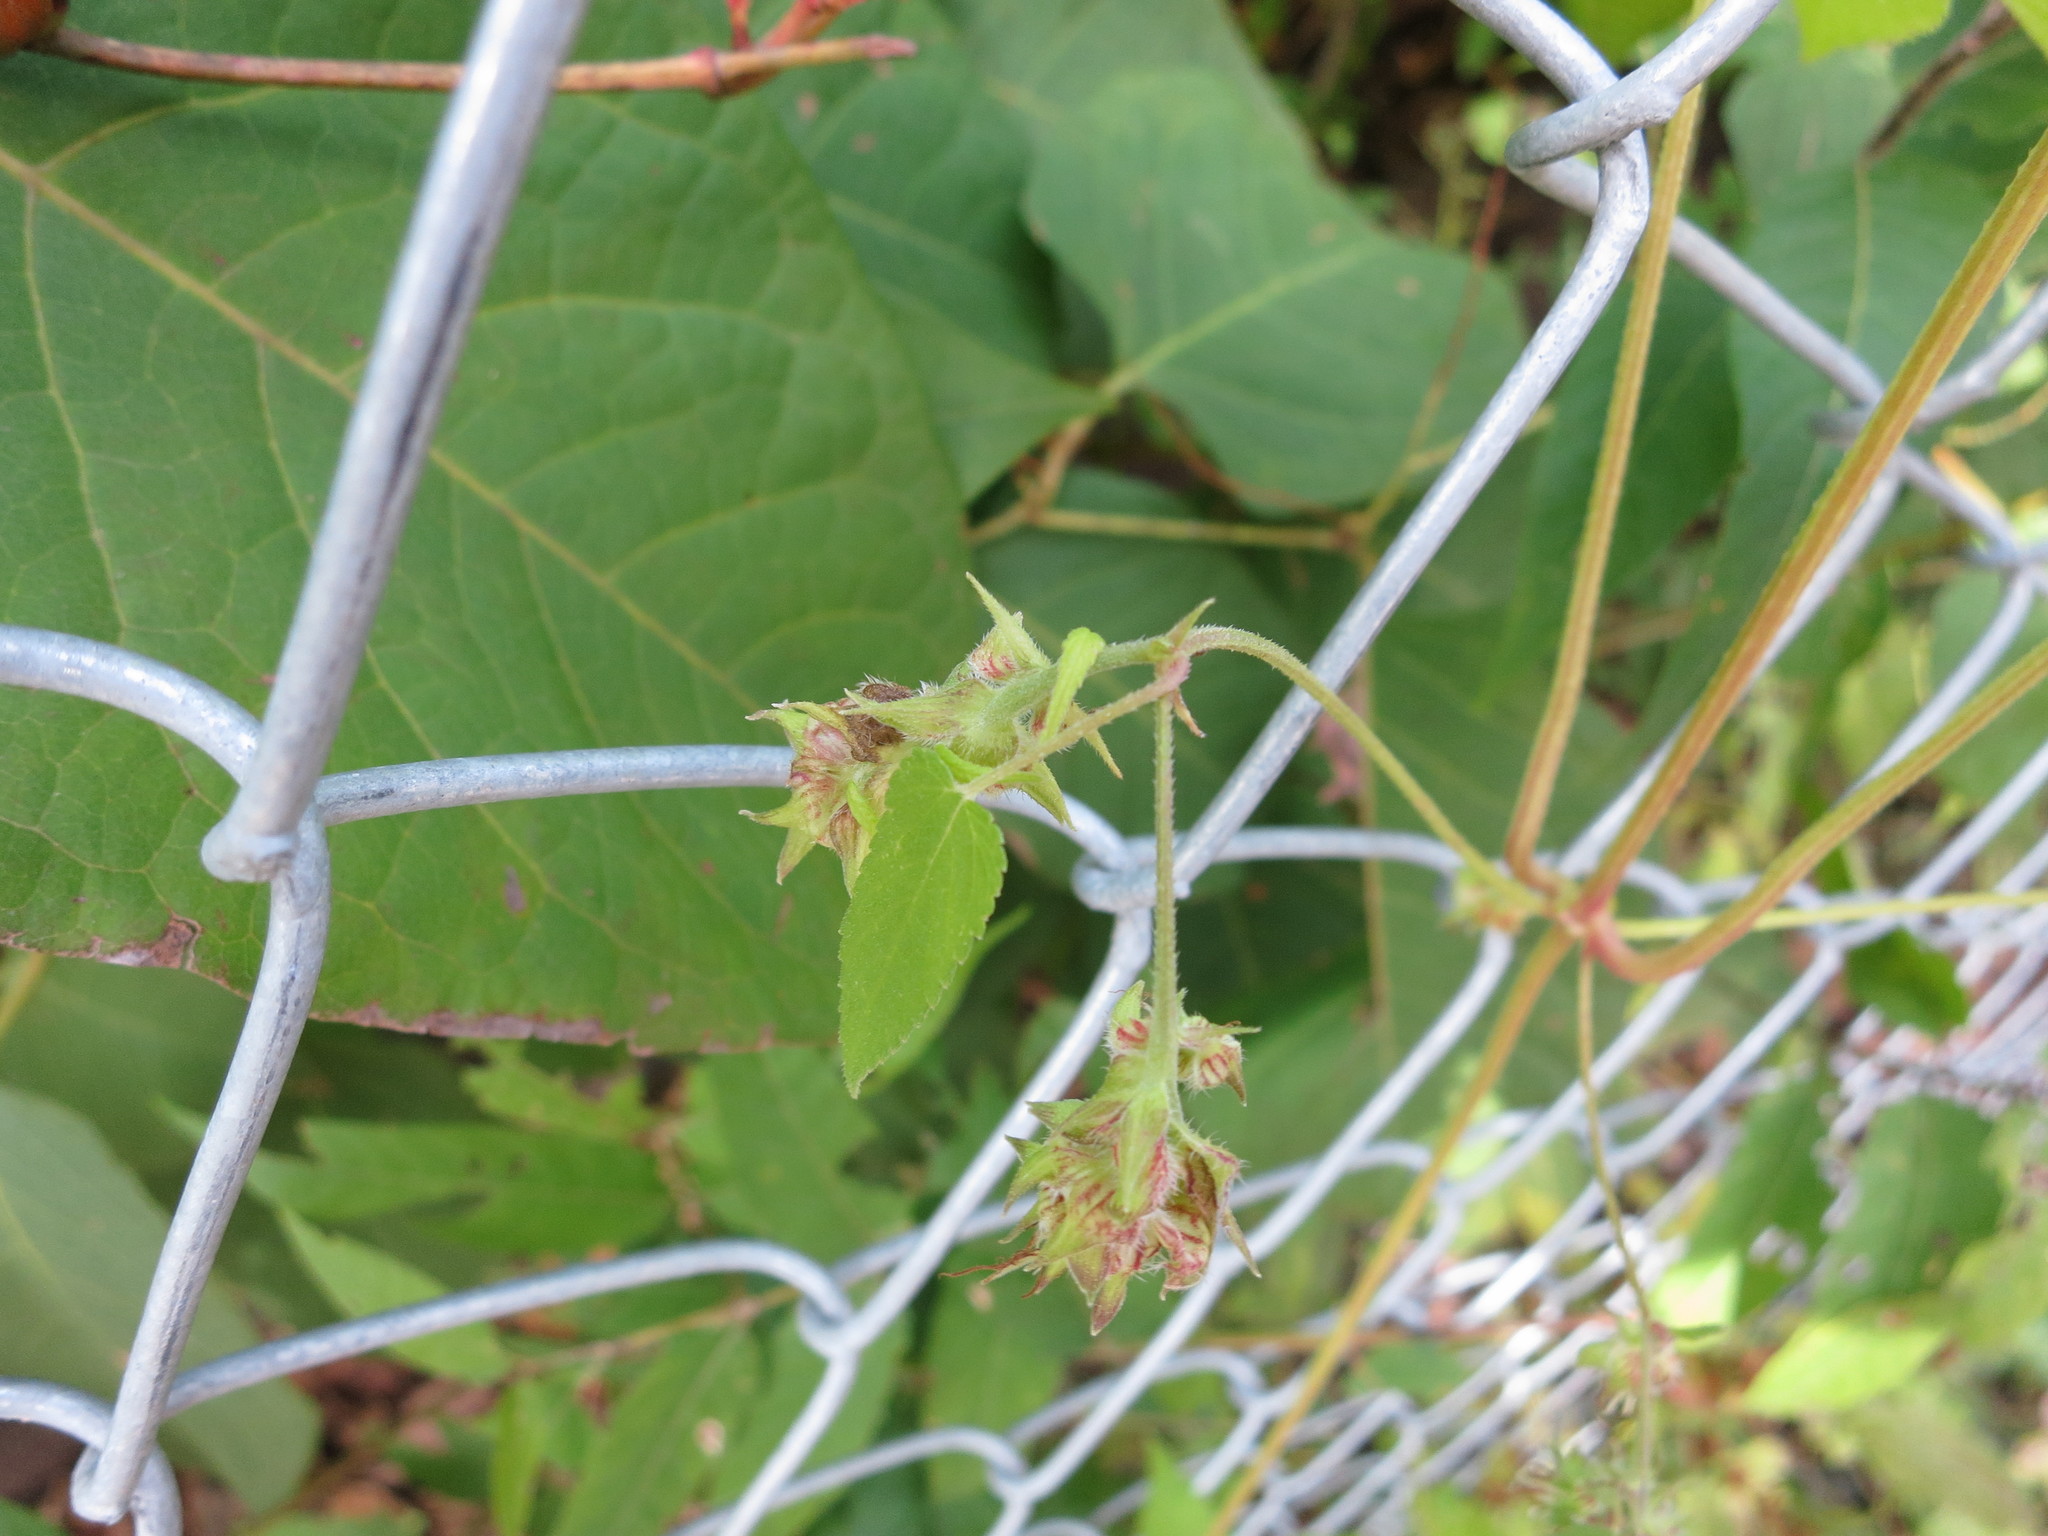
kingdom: Plantae
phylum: Tracheophyta
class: Magnoliopsida
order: Rosales
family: Cannabaceae
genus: Humulus
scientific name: Humulus scandens
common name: Japanese hop
